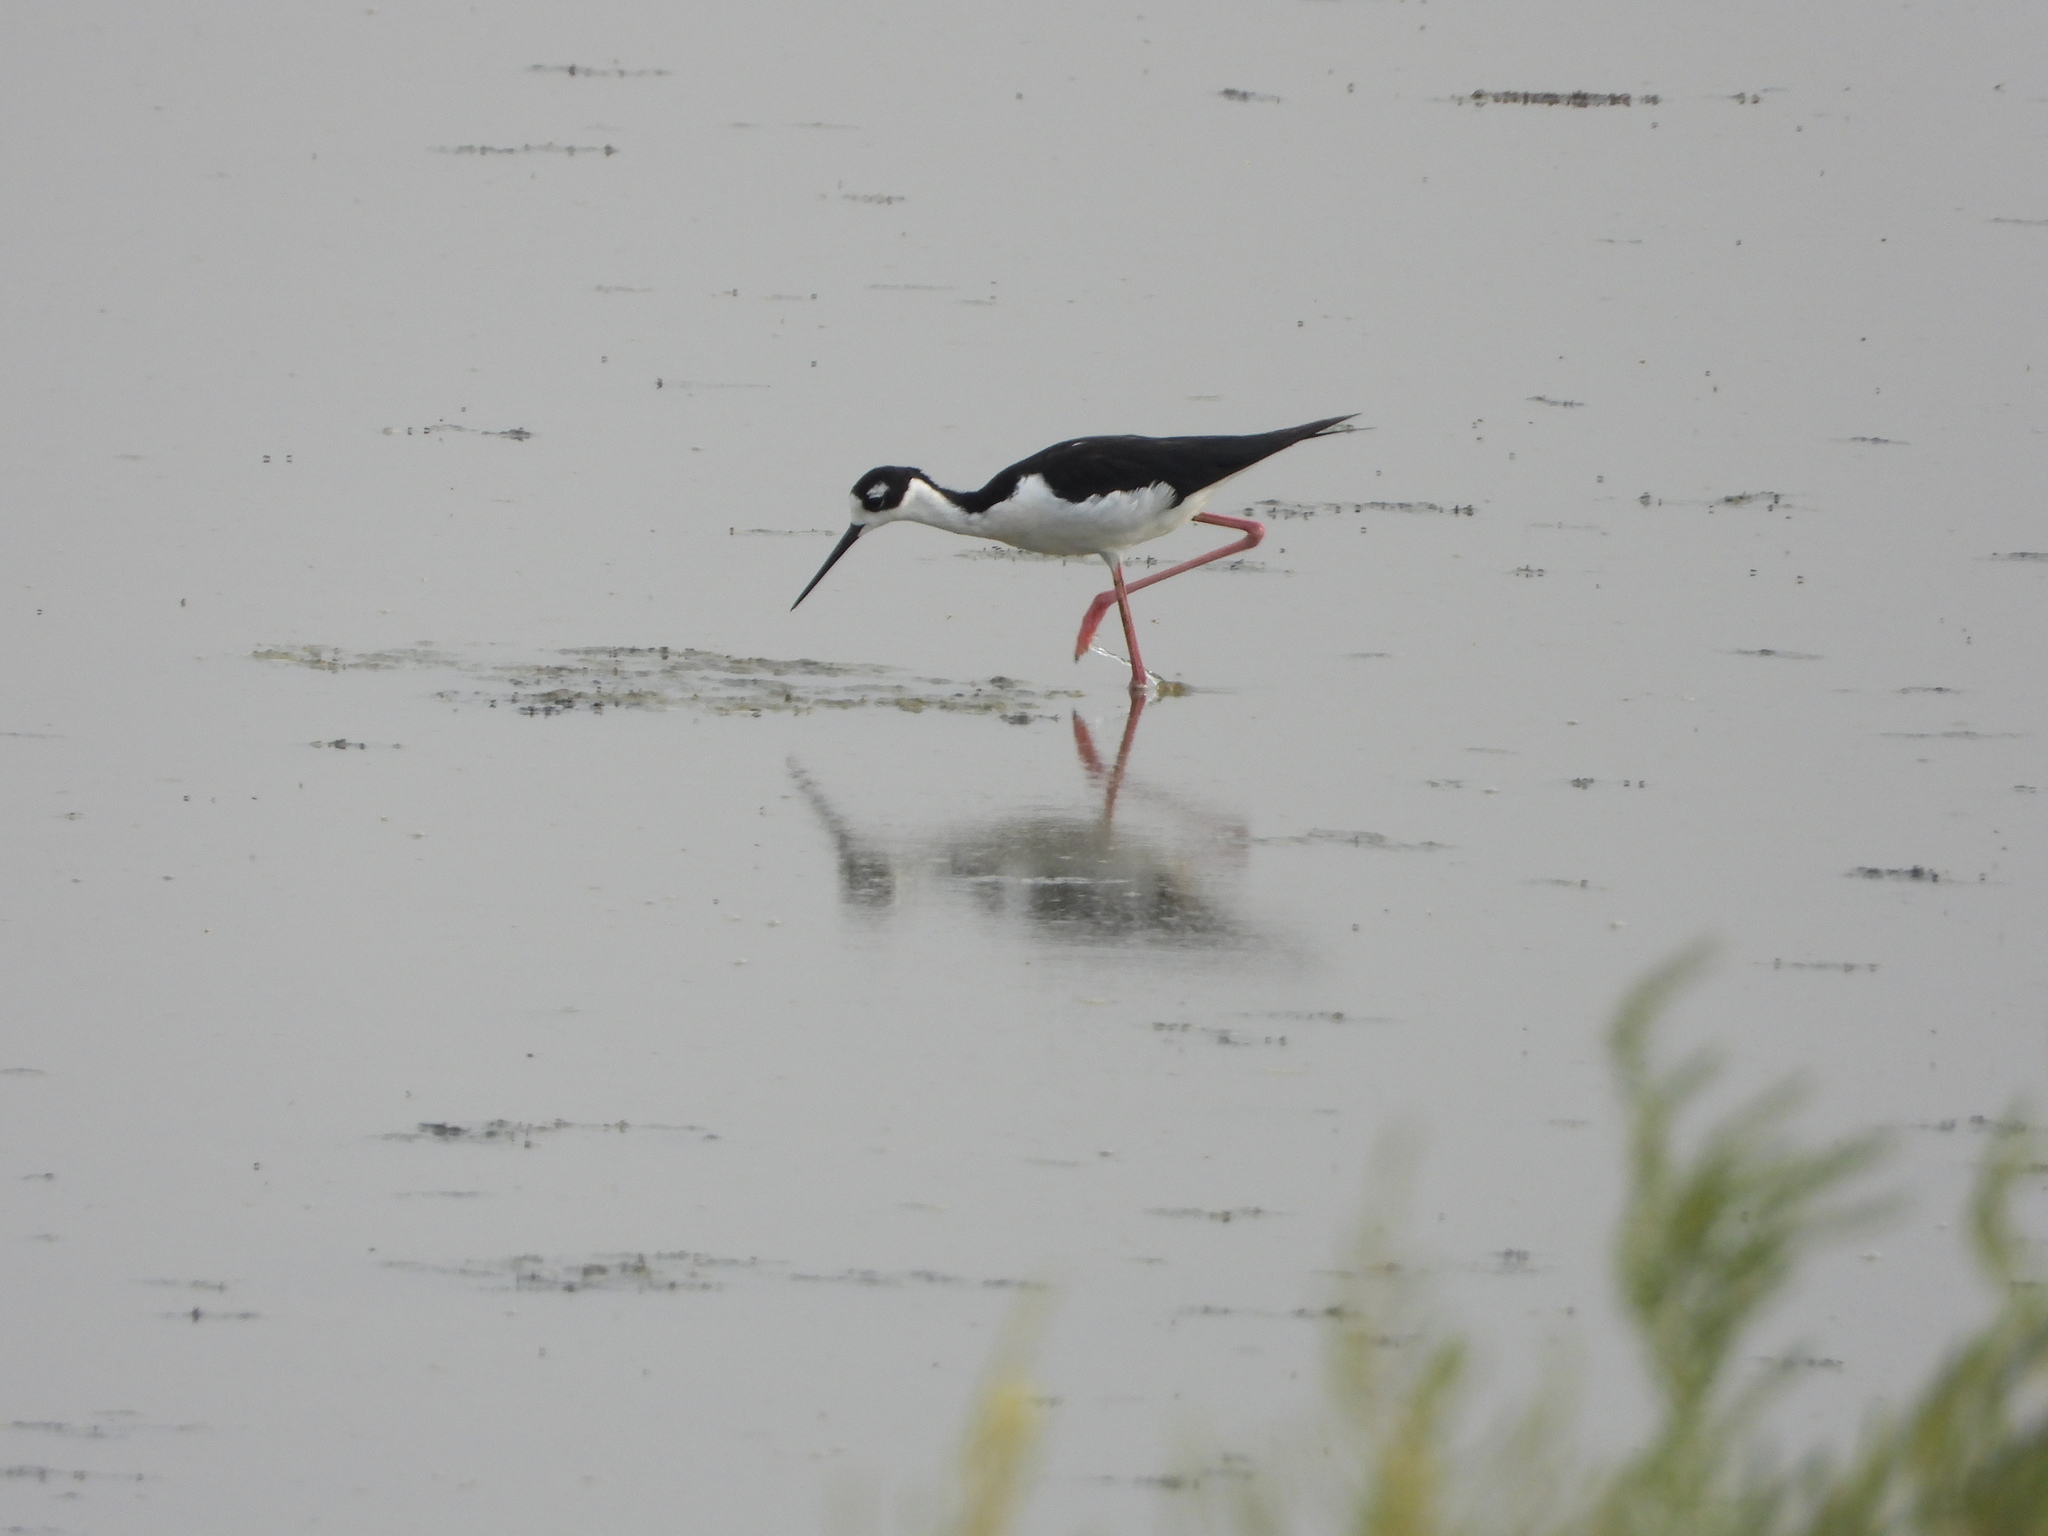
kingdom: Animalia
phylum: Chordata
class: Aves
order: Charadriiformes
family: Recurvirostridae
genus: Himantopus
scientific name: Himantopus mexicanus
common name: Black-necked stilt
